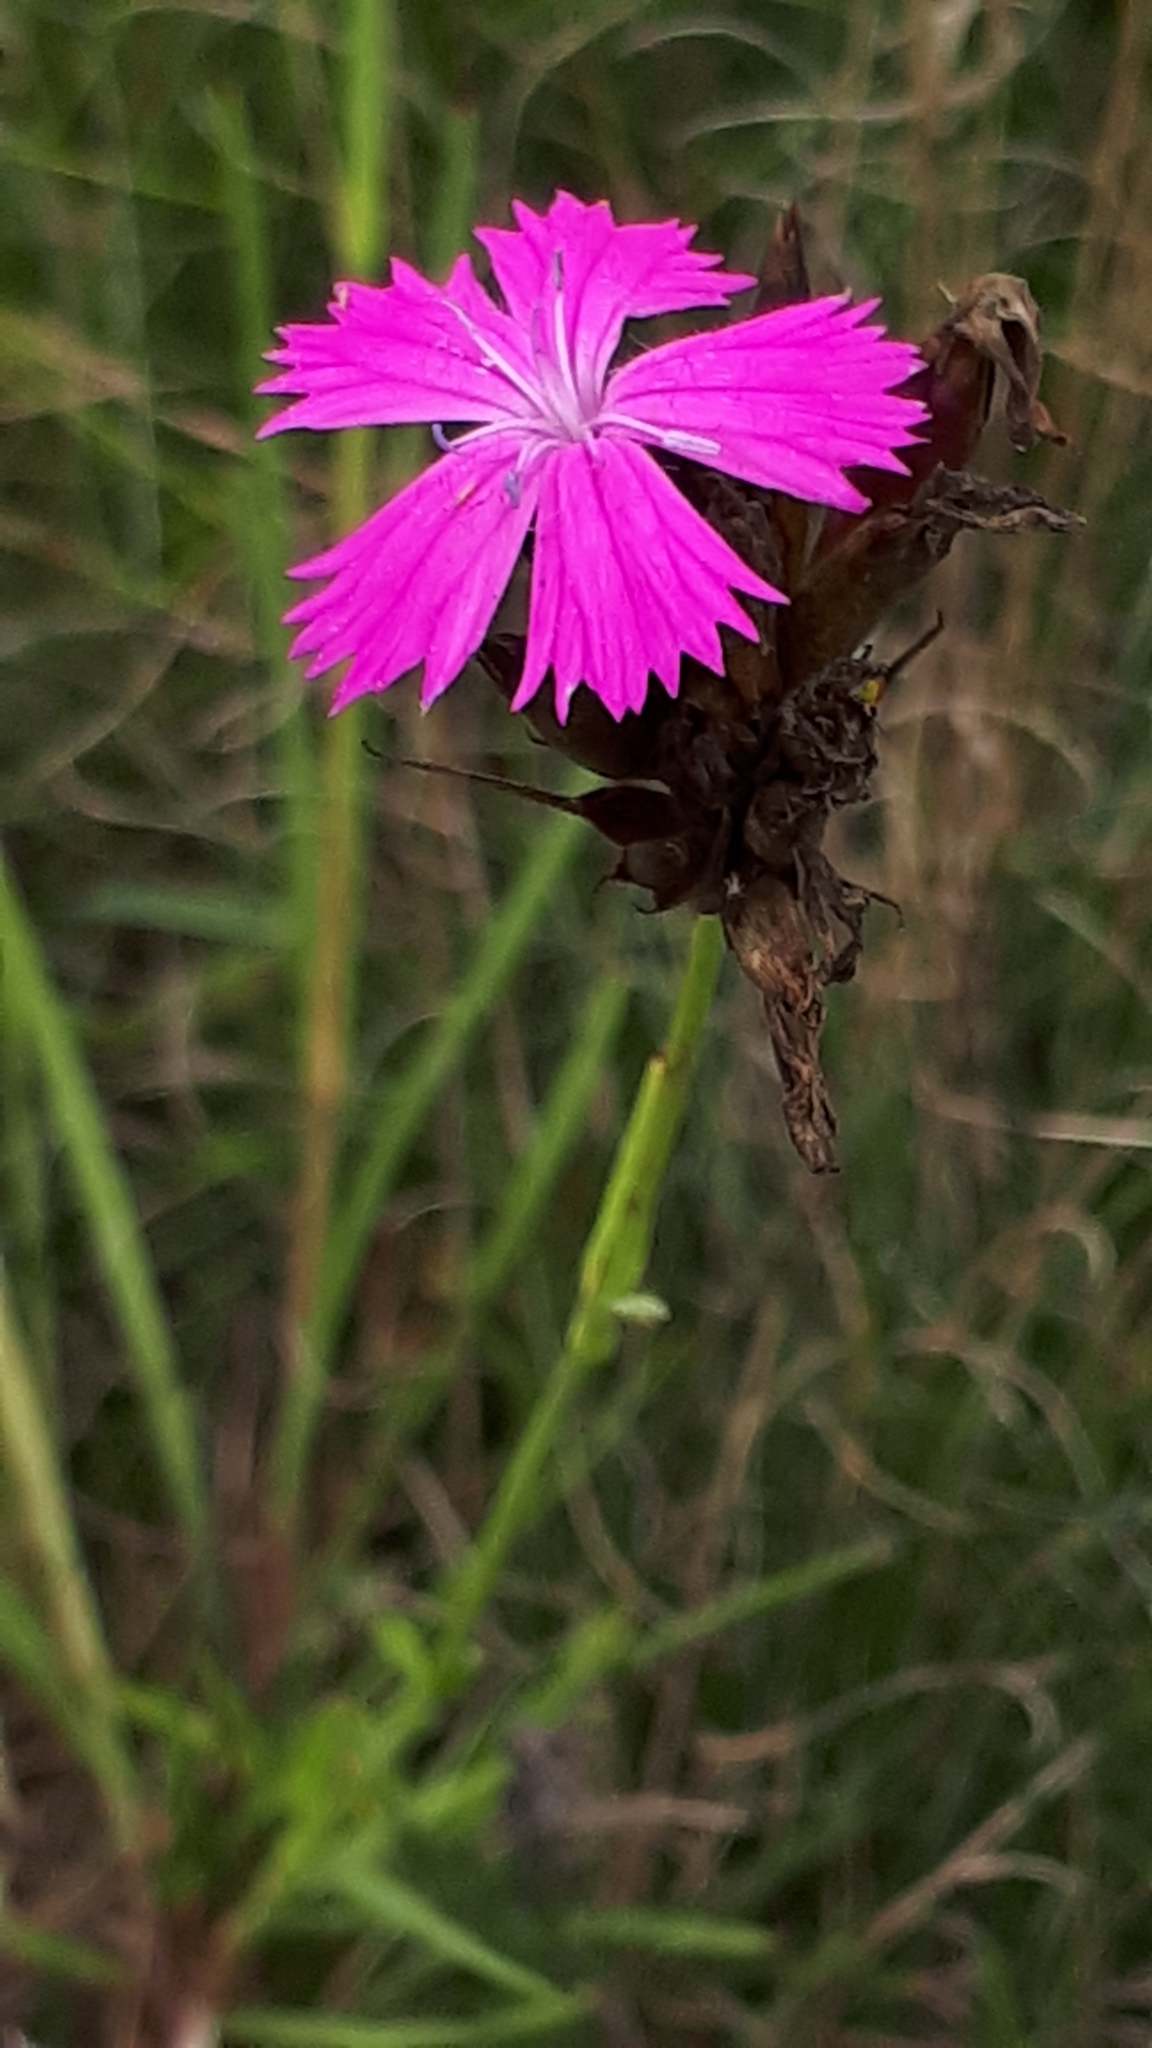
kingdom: Plantae
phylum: Tracheophyta
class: Magnoliopsida
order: Caryophyllales
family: Caryophyllaceae
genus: Dianthus
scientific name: Dianthus carthusianorum
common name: Carthusian pink
